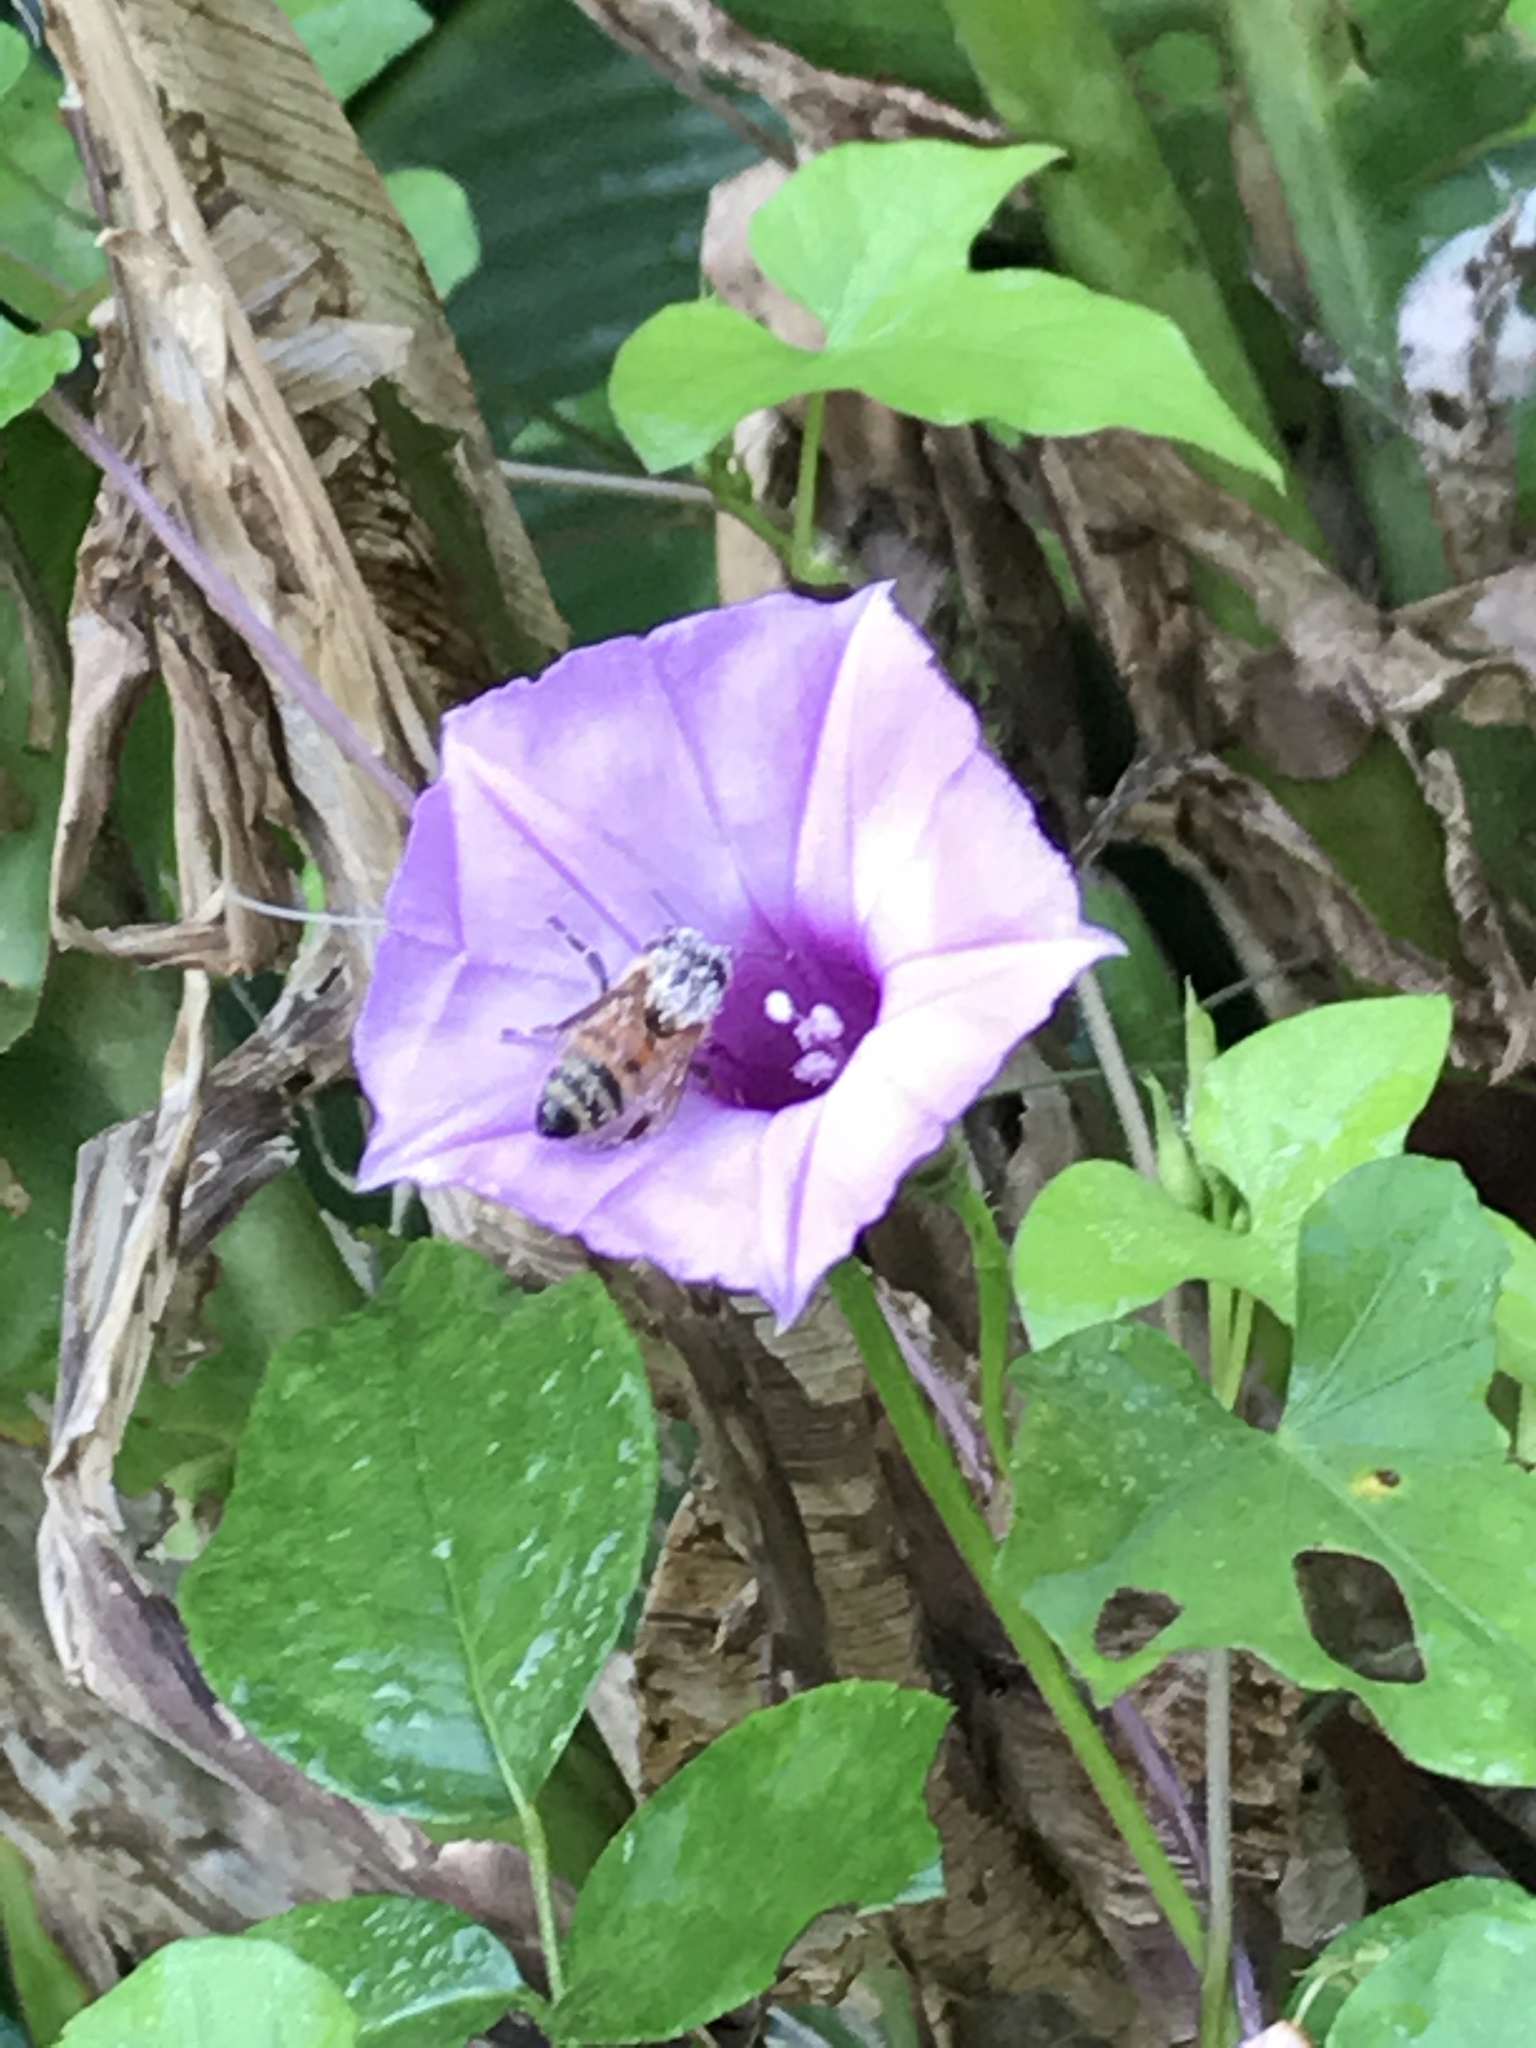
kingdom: Animalia
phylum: Arthropoda
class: Insecta
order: Hymenoptera
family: Apidae
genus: Apis
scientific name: Apis mellifera
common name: Honey bee
